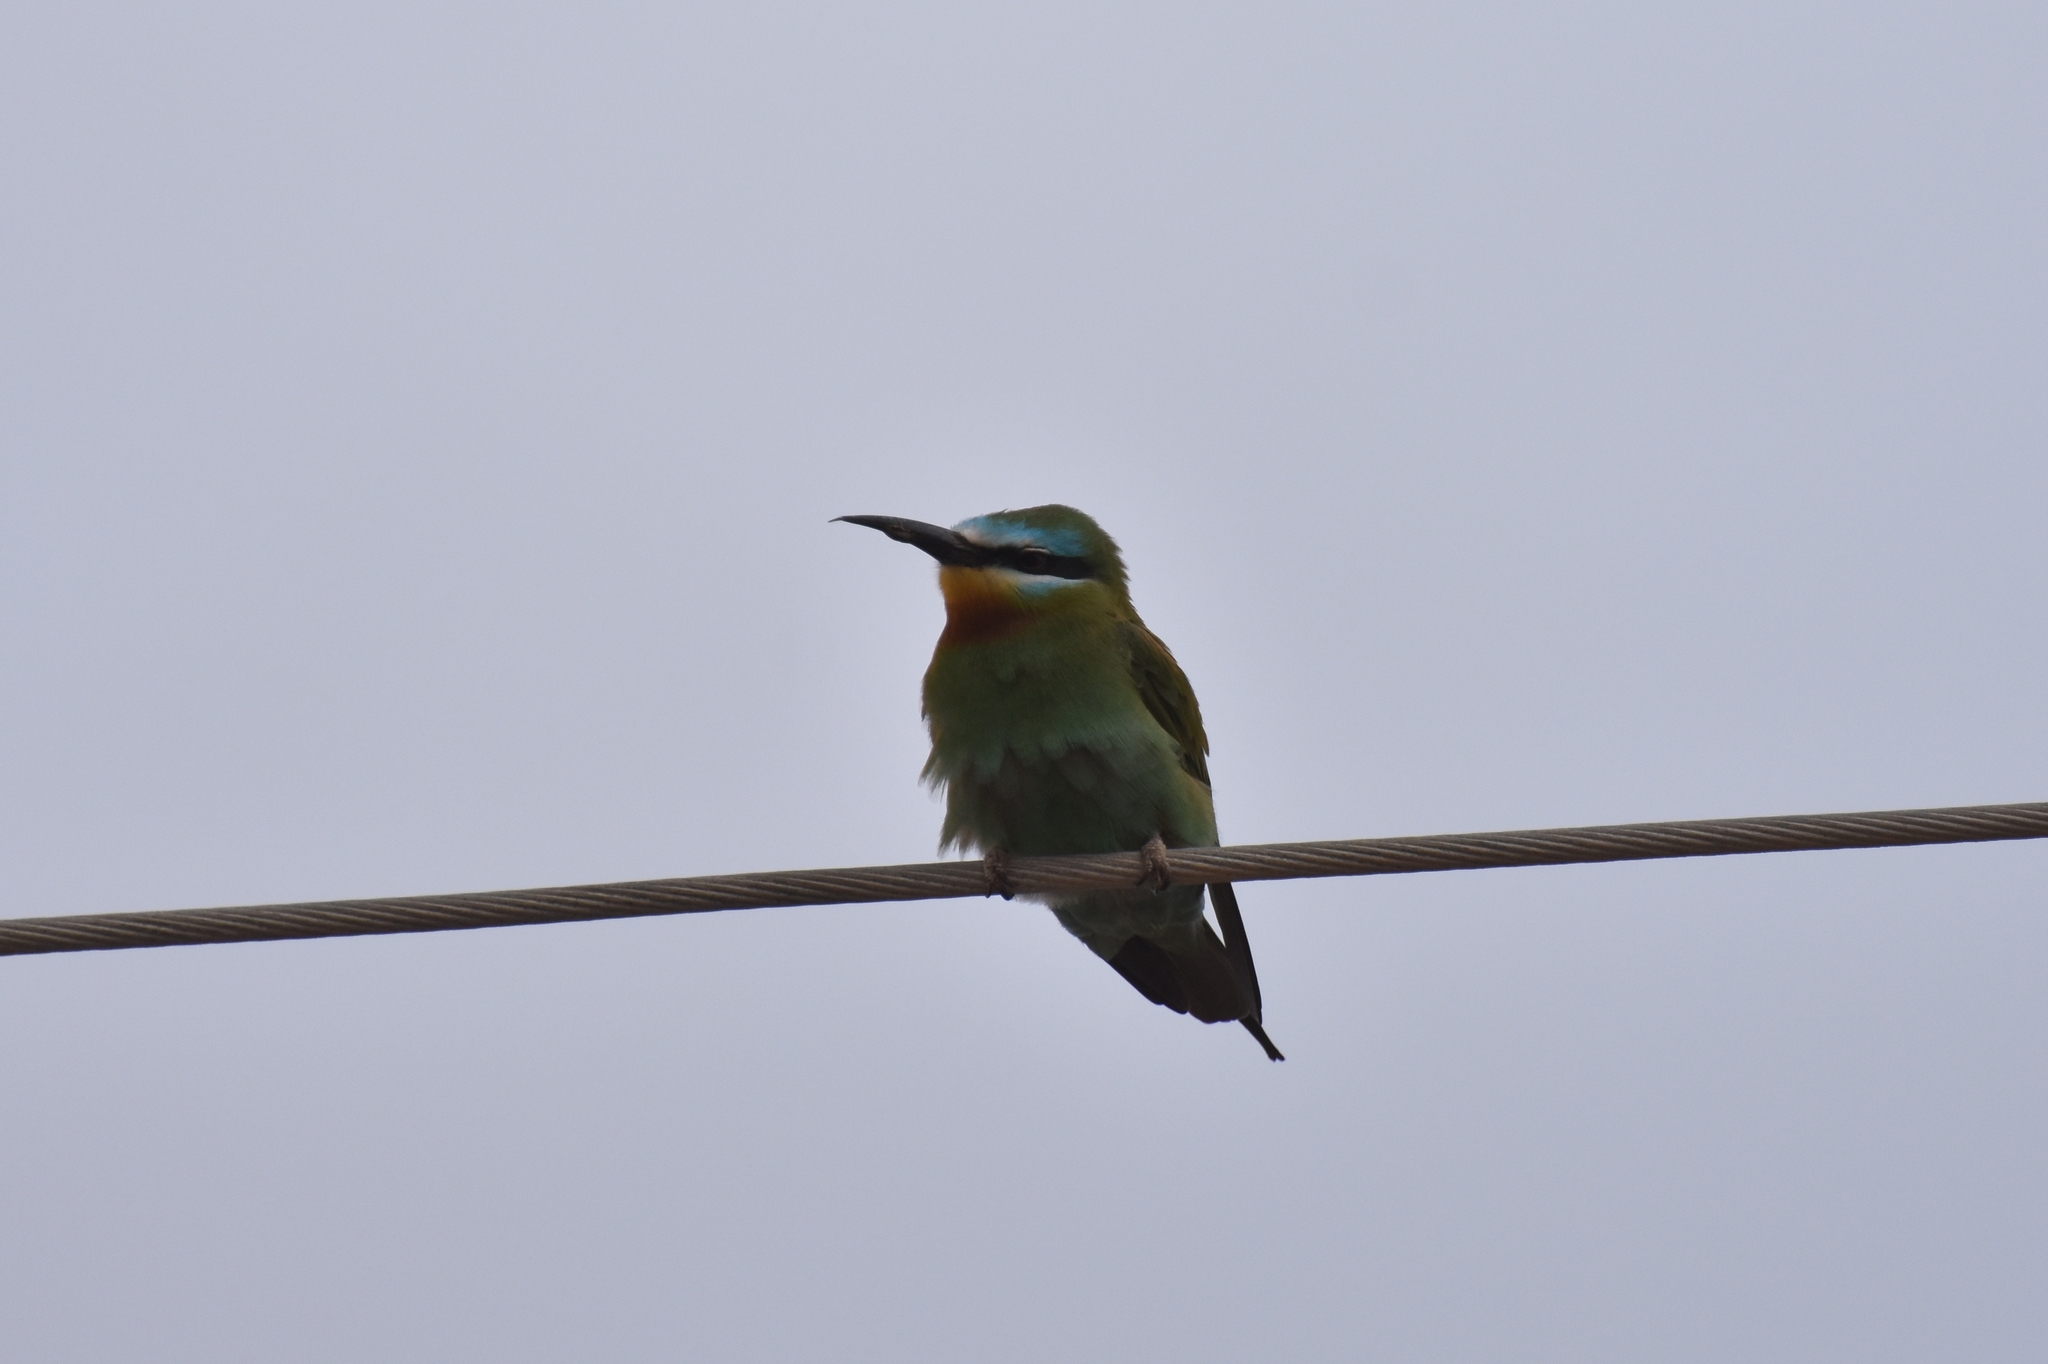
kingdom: Animalia
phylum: Chordata
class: Aves
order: Coraciiformes
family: Meropidae
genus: Merops
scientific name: Merops persicus
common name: Blue-cheeked bee-eater
